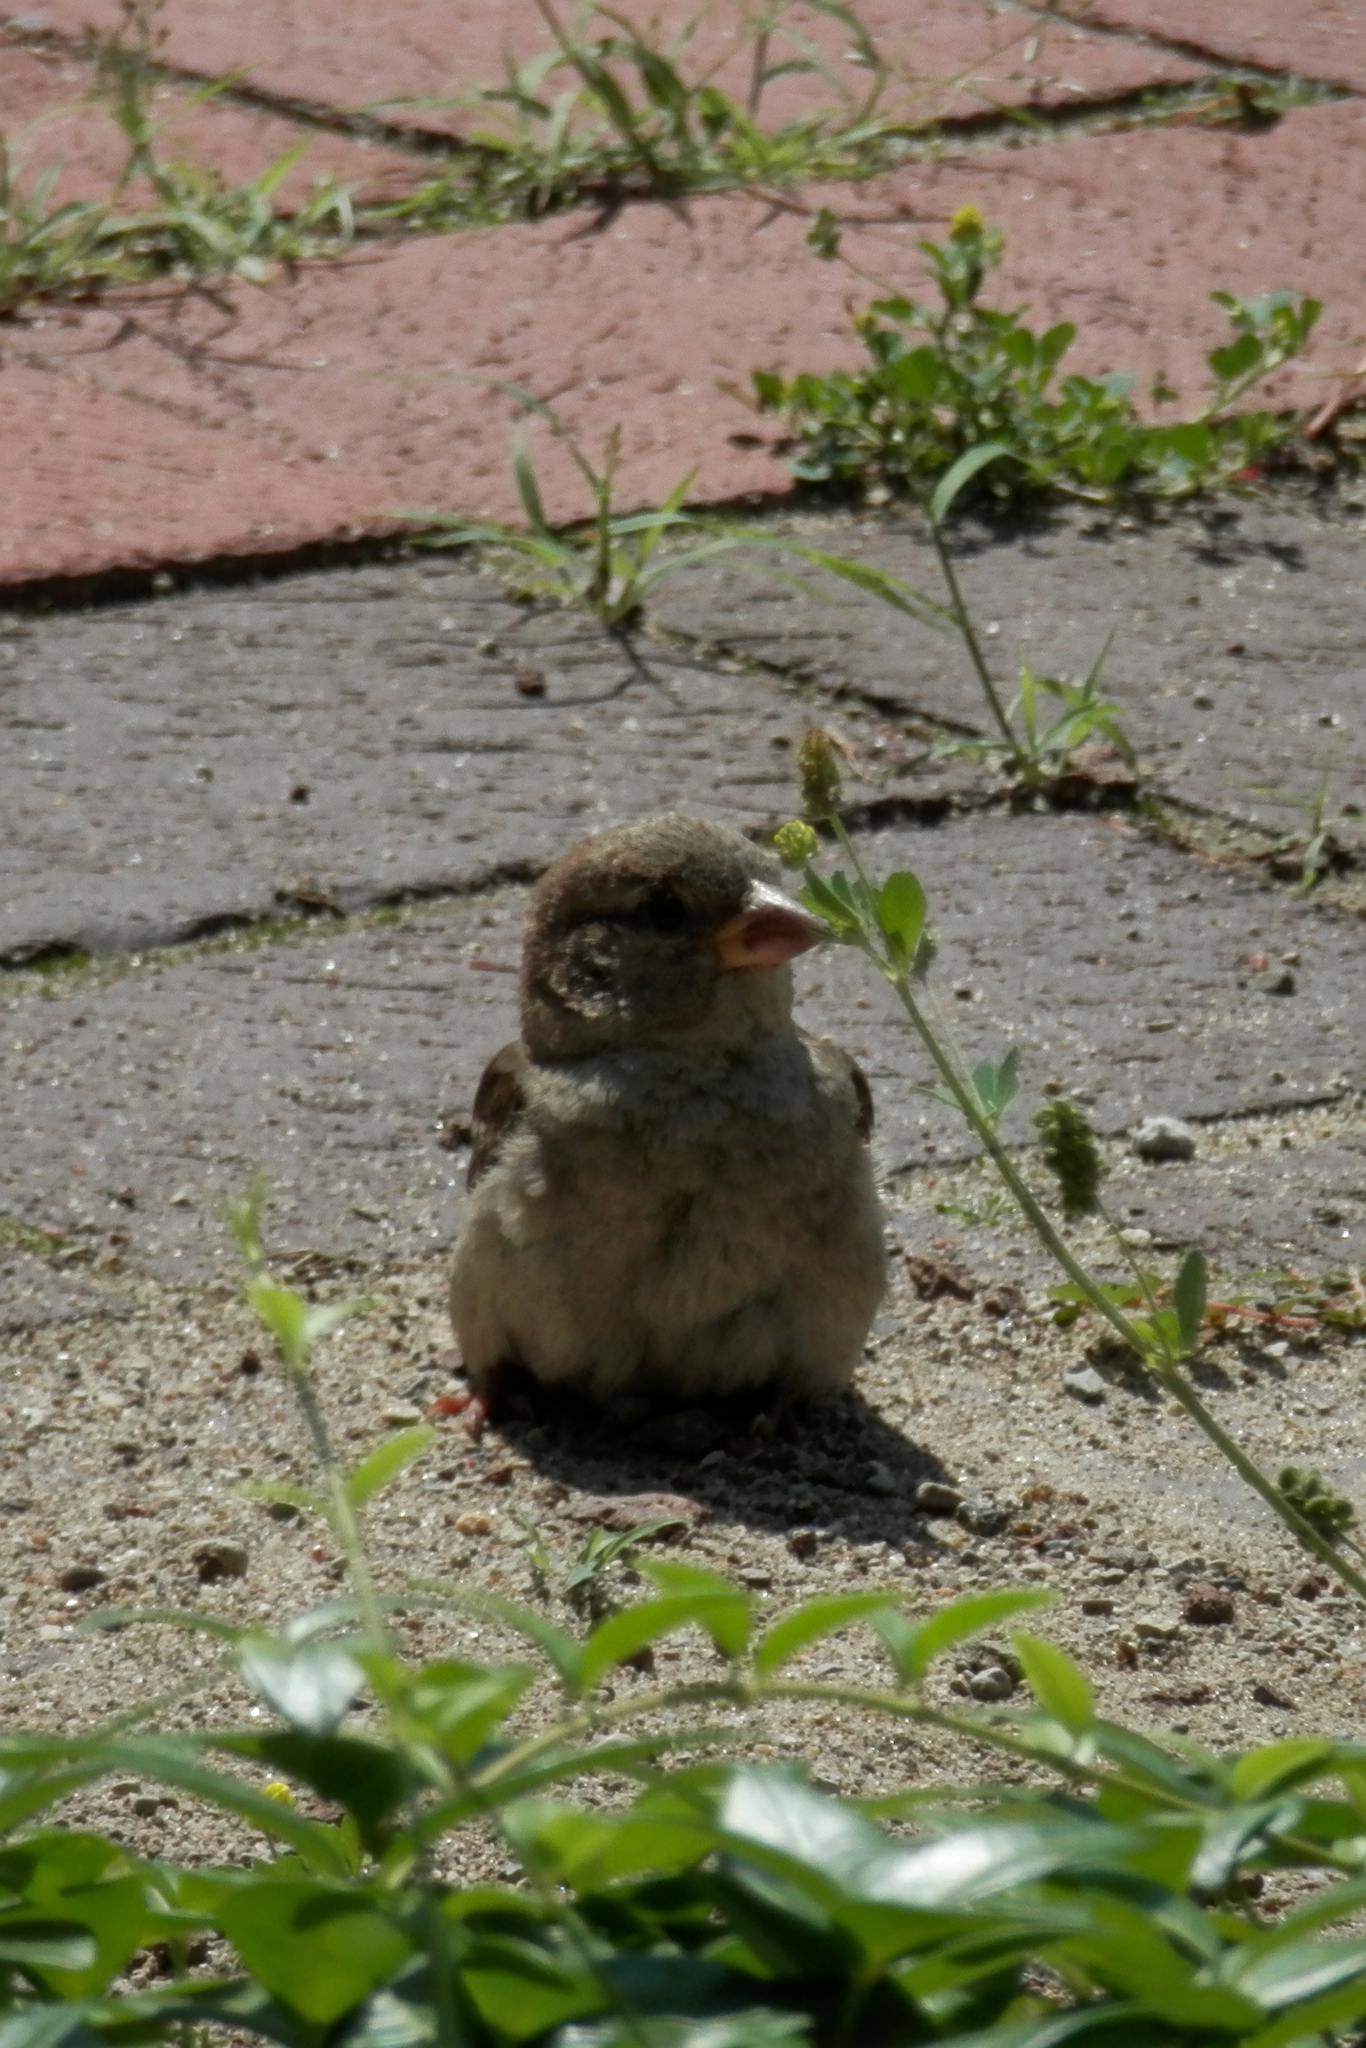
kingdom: Animalia
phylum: Chordata
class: Aves
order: Passeriformes
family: Passeridae
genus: Passer
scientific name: Passer domesticus
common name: House sparrow
